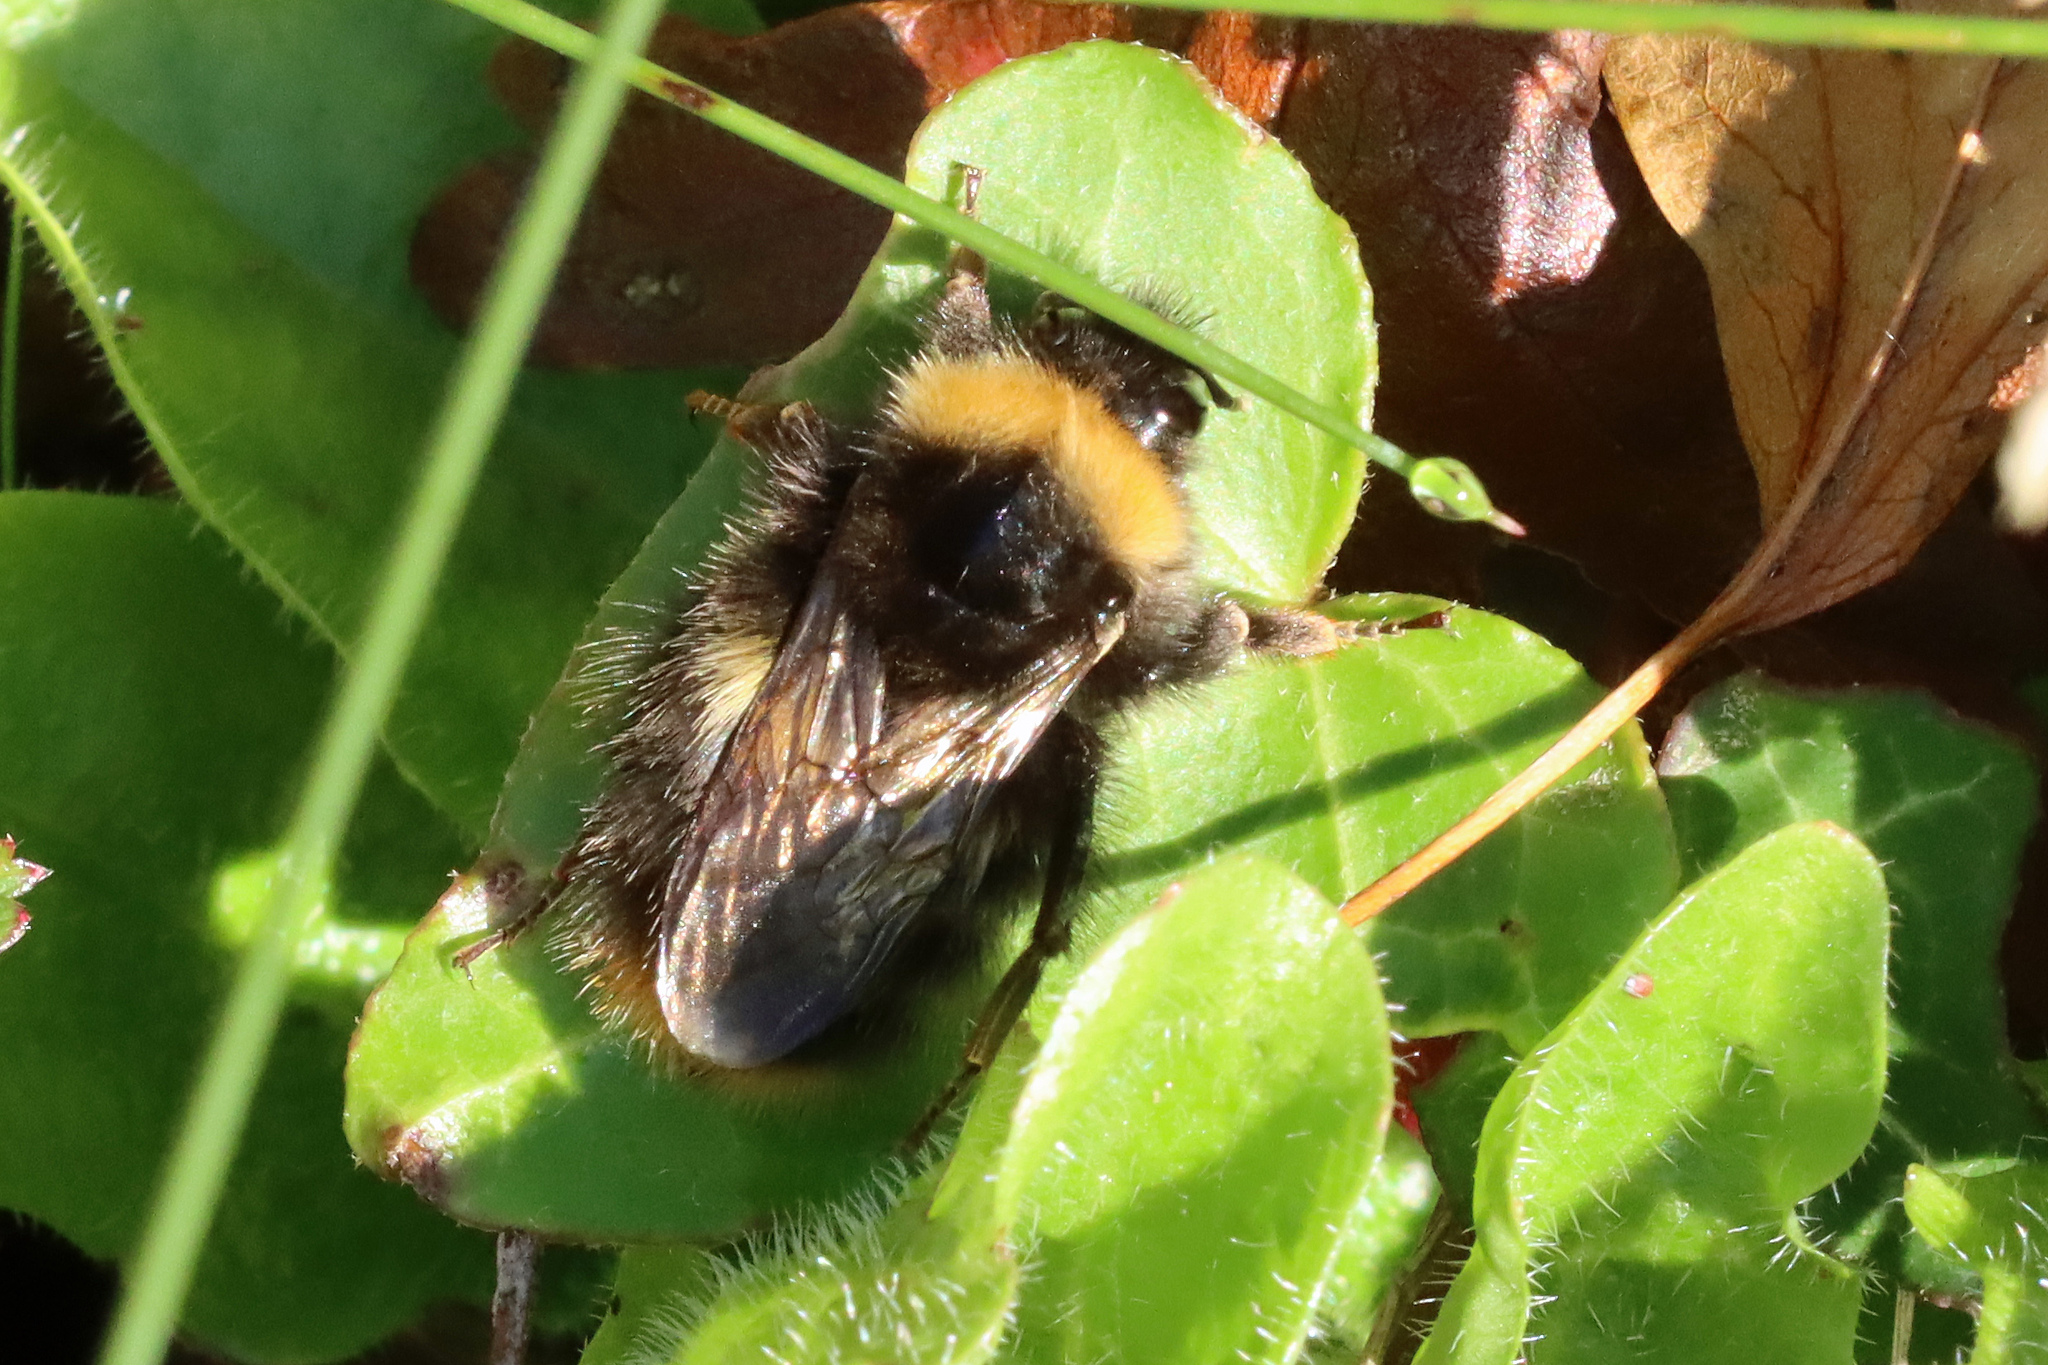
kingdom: Animalia
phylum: Arthropoda
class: Insecta
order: Hymenoptera
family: Apidae
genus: Bombus
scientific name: Bombus pratorum
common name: Early humble-bee
